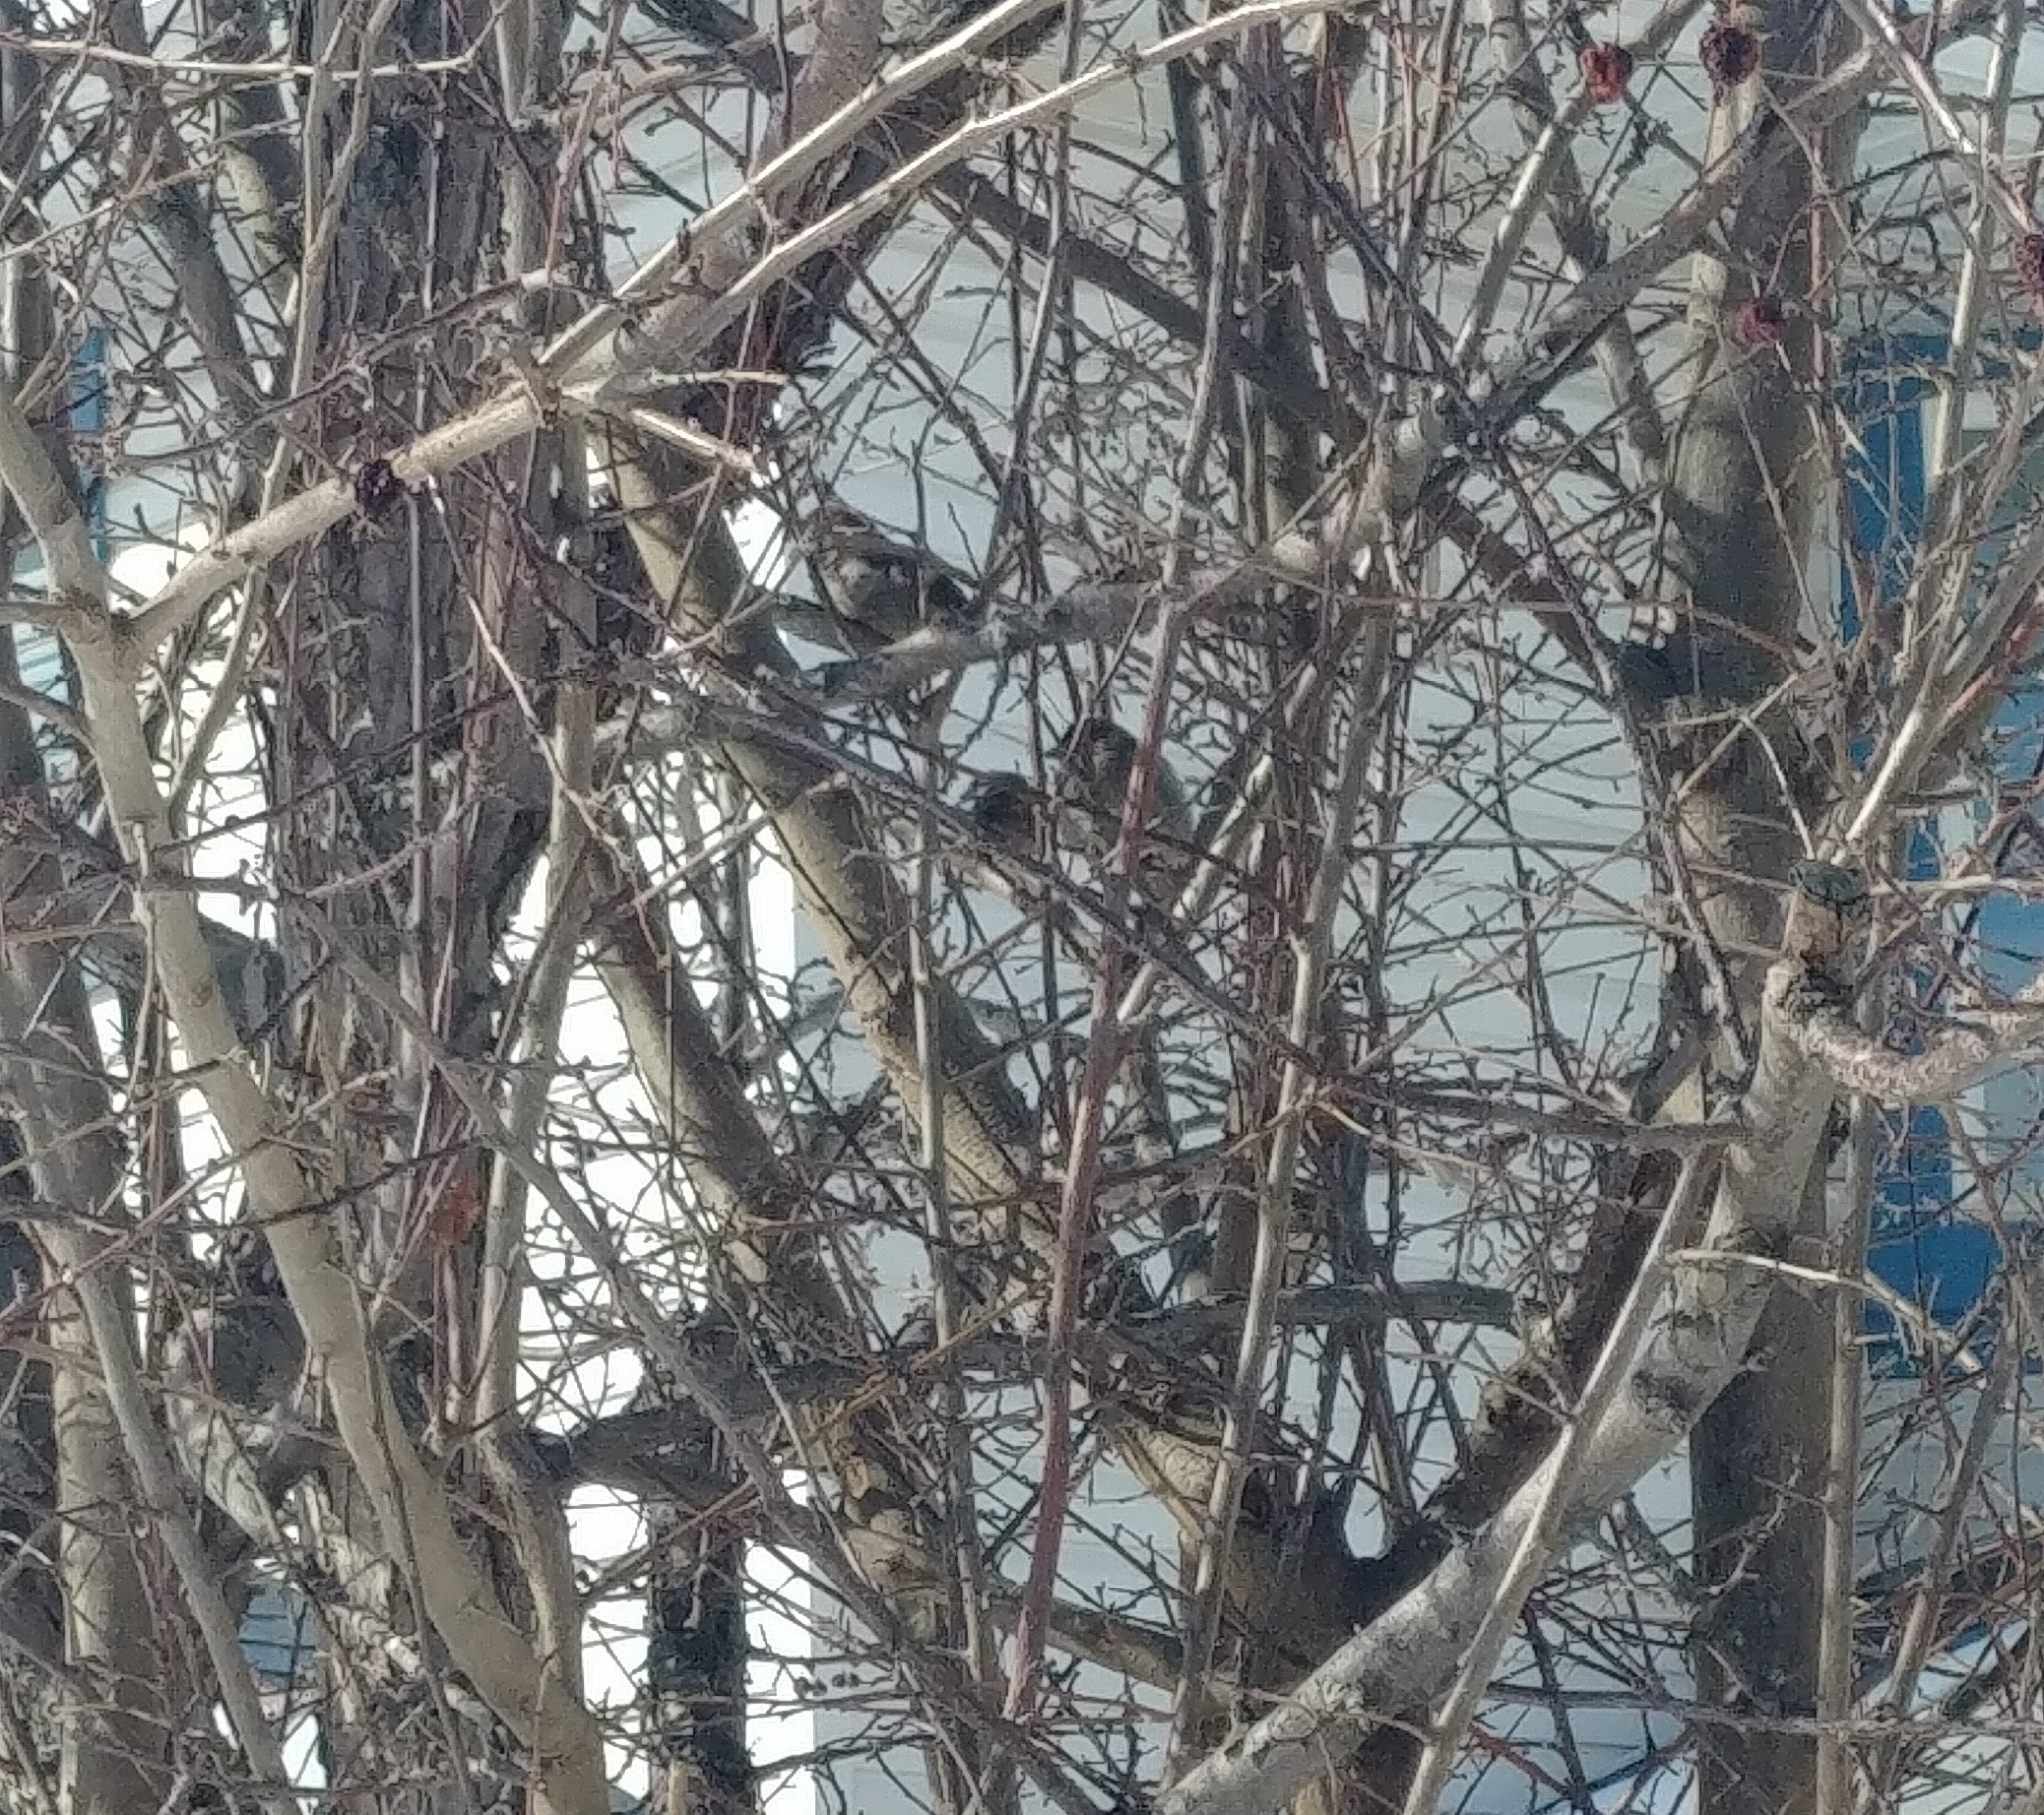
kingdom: Animalia
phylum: Chordata
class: Aves
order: Passeriformes
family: Passeridae
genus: Passer
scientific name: Passer domesticus
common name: House sparrow
